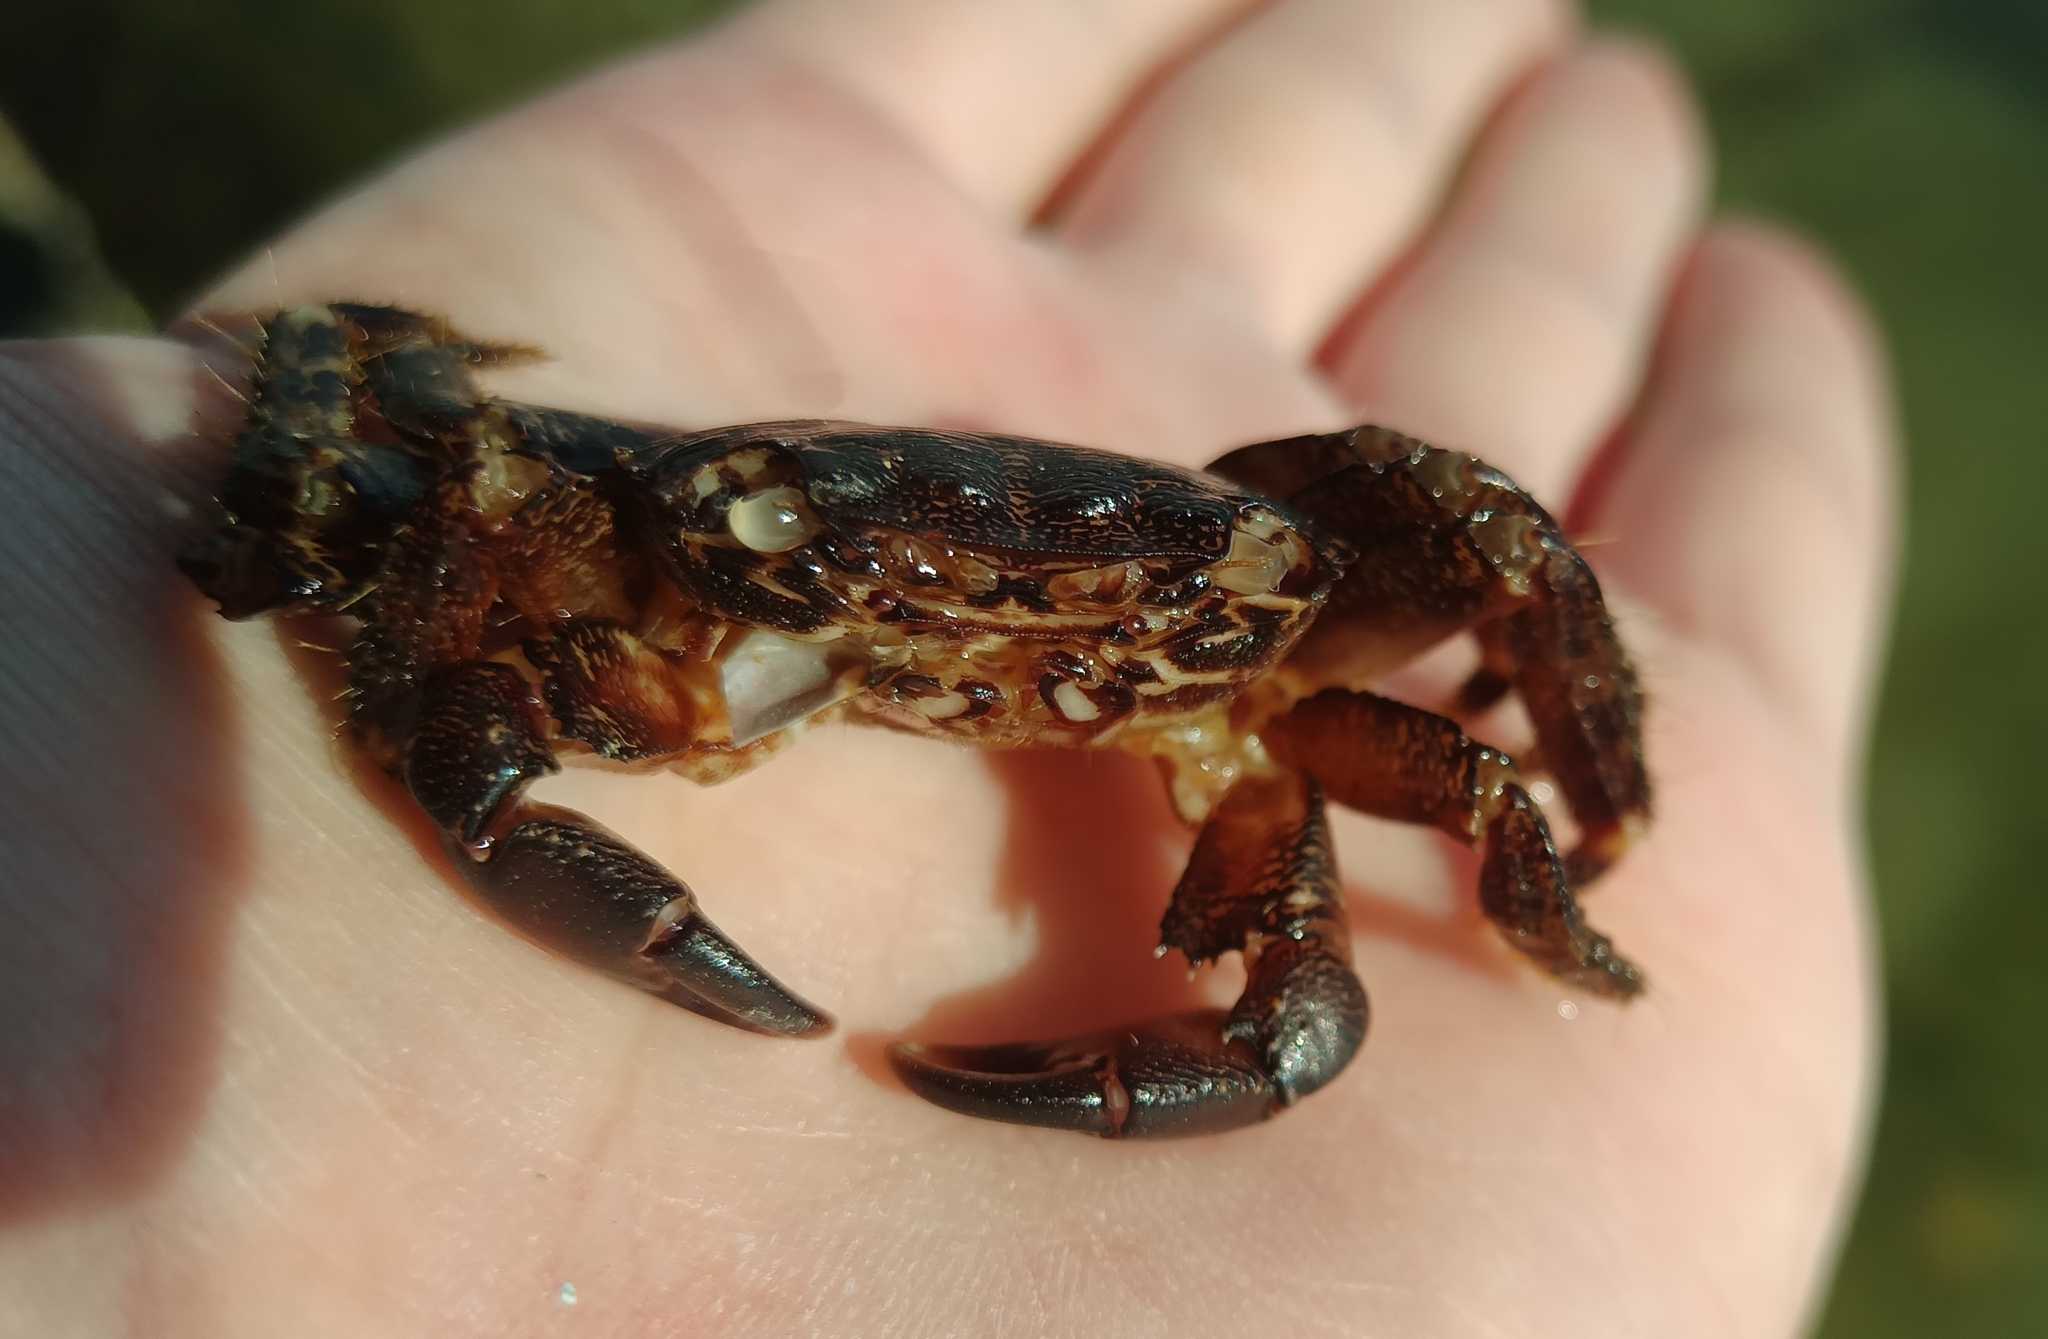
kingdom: Animalia
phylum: Arthropoda
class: Malacostraca
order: Decapoda
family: Grapsidae
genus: Pachygrapsus
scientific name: Pachygrapsus marmoratus
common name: Marbled rock crab
